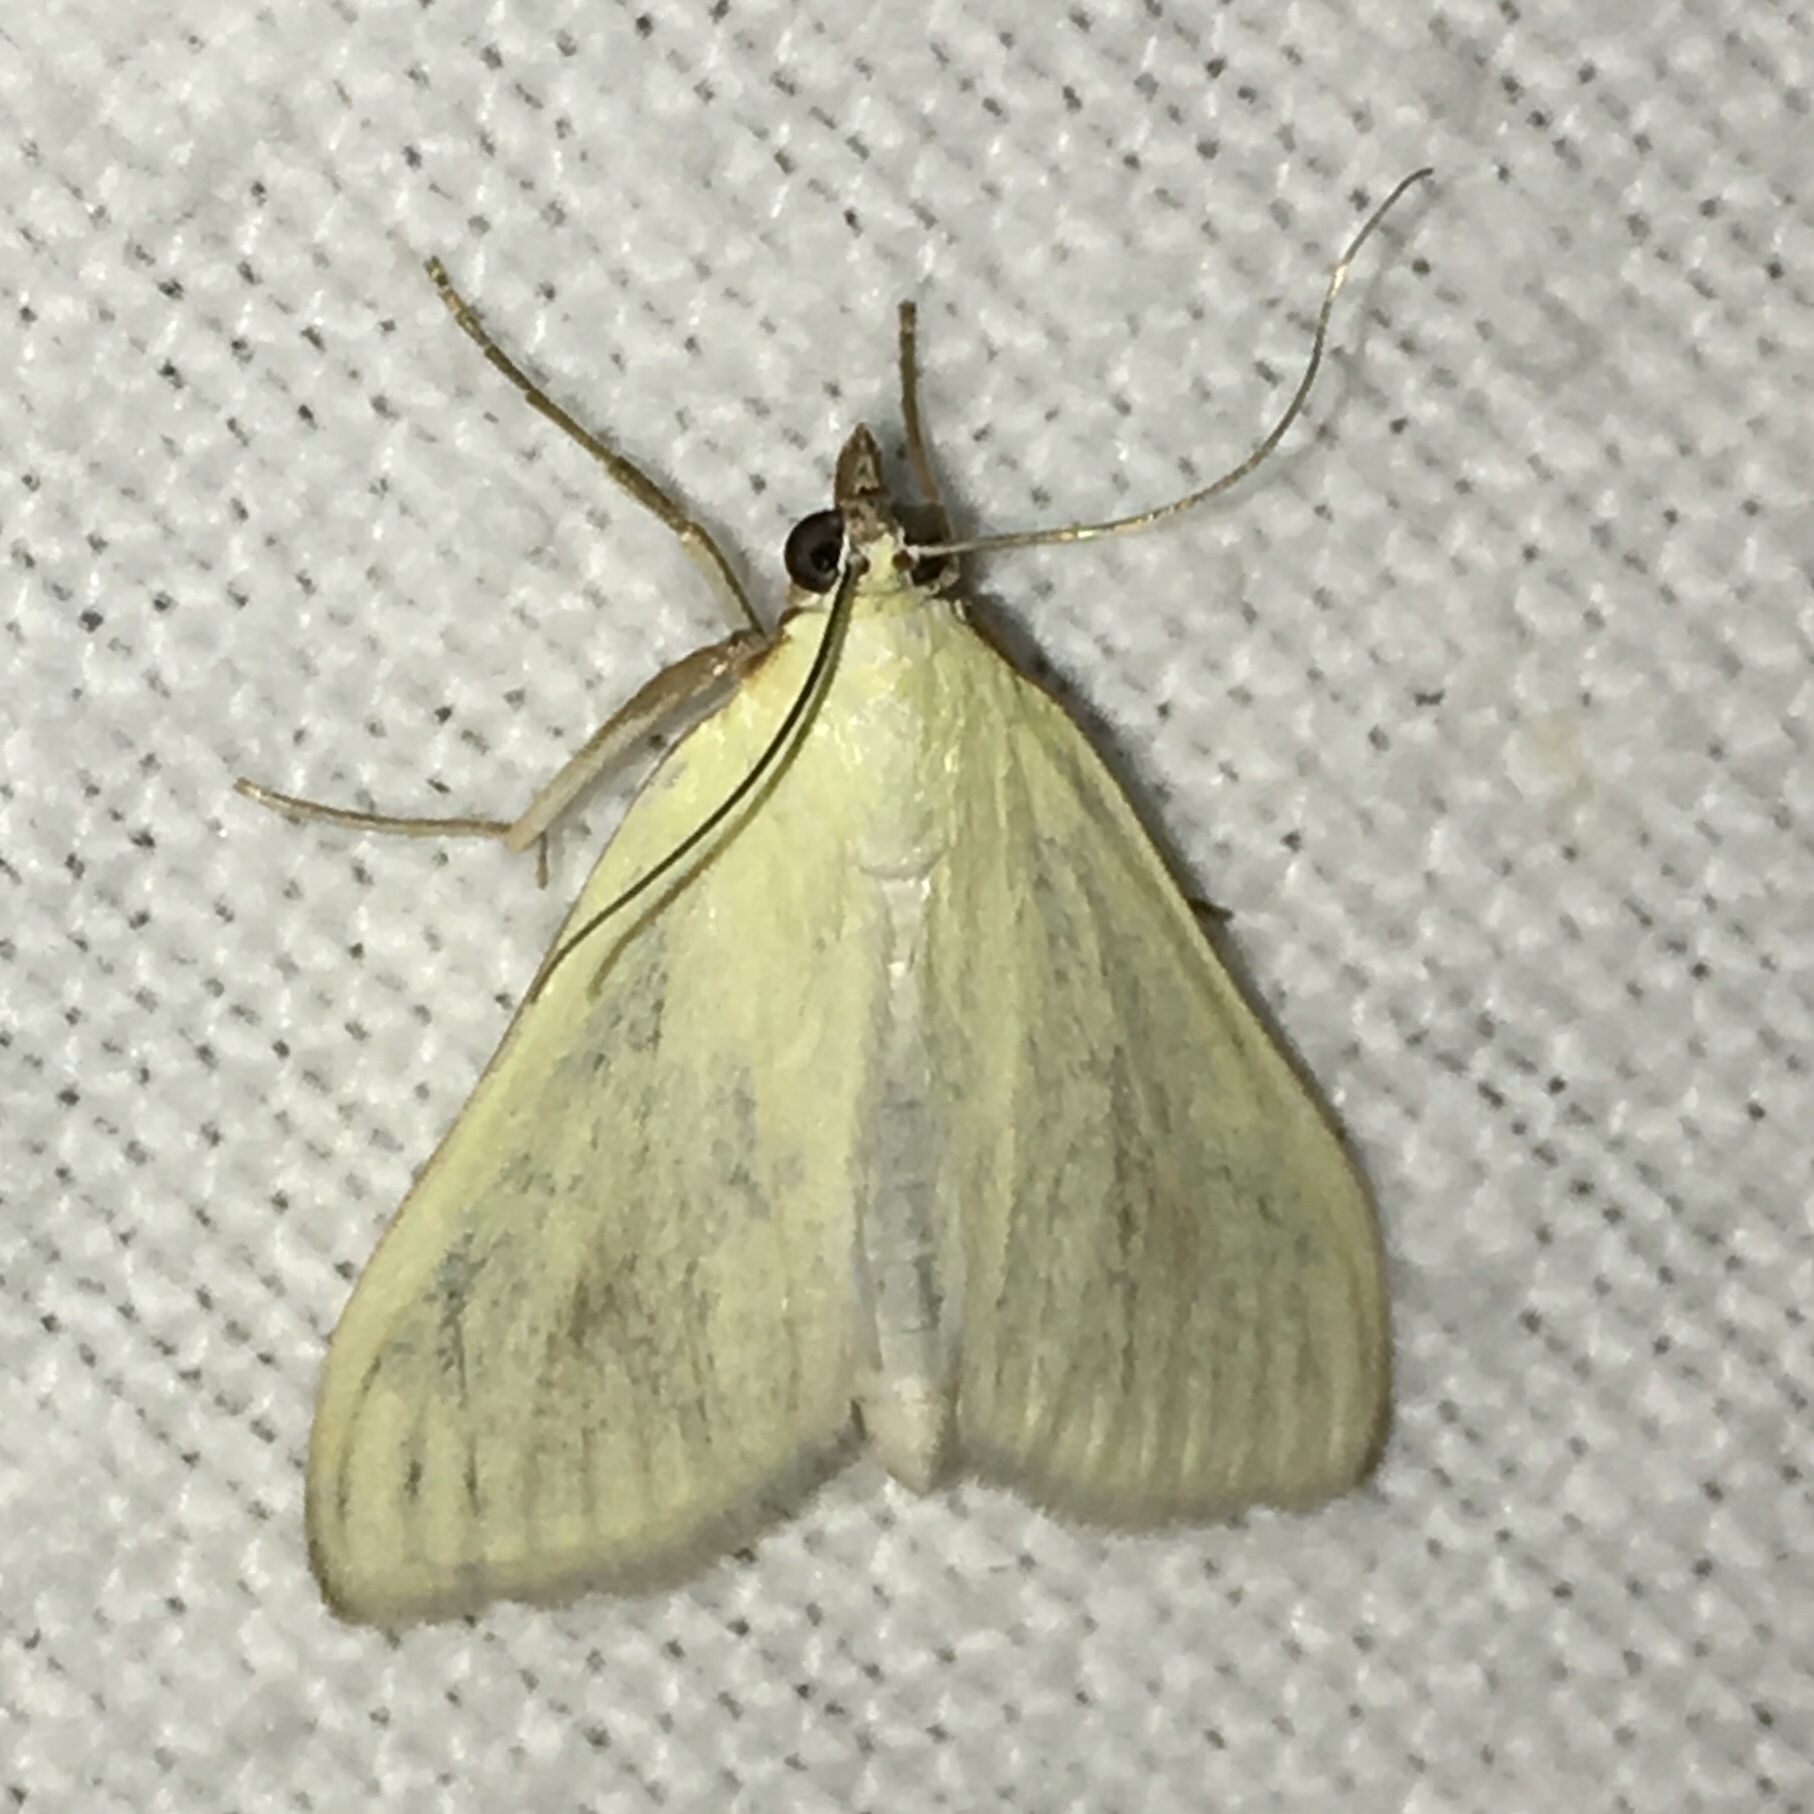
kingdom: Animalia
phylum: Arthropoda
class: Insecta
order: Lepidoptera
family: Crambidae
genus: Sitochroa
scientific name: Sitochroa palealis
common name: Greenish-yellow sitochroa moth
